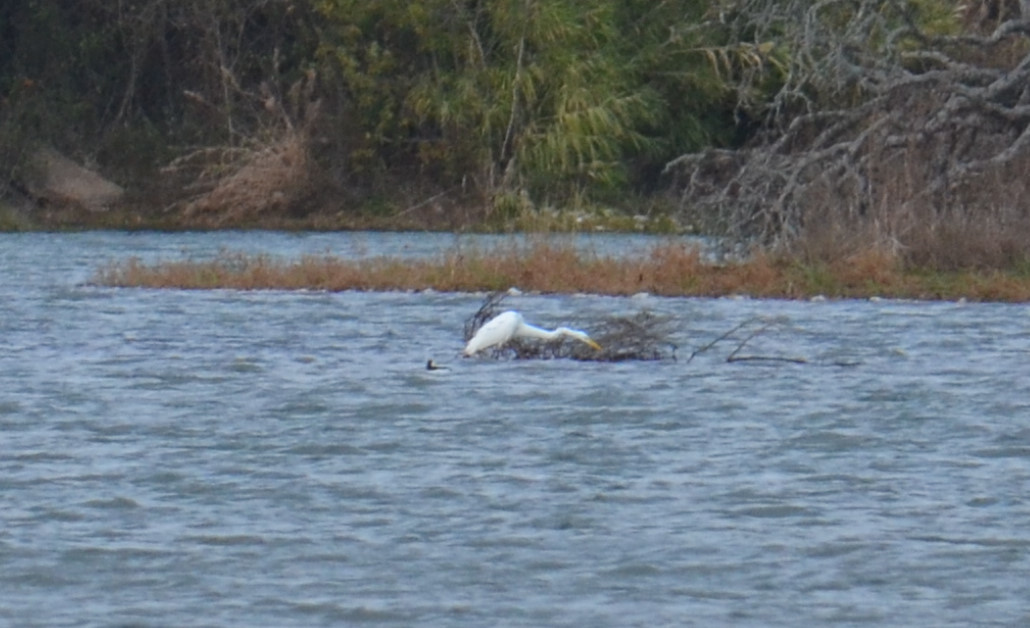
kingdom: Animalia
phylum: Chordata
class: Aves
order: Pelecaniformes
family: Ardeidae
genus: Ardea
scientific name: Ardea alba
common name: Great egret
